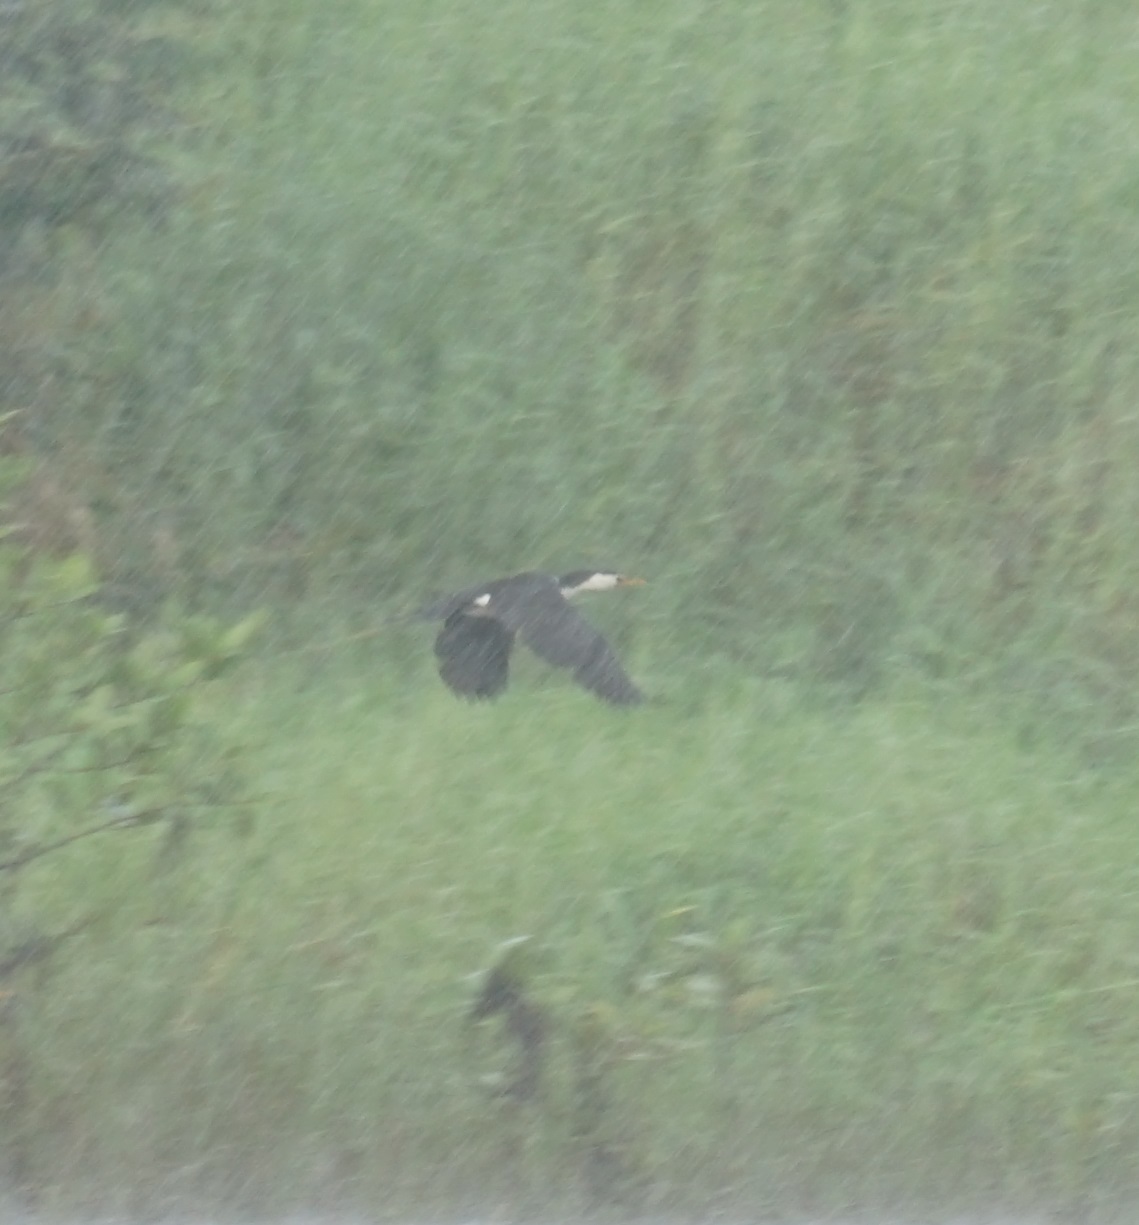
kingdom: Animalia
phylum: Chordata
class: Aves
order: Suliformes
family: Phalacrocoracidae
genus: Microcarbo
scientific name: Microcarbo melanoleucos
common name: Little pied cormorant
